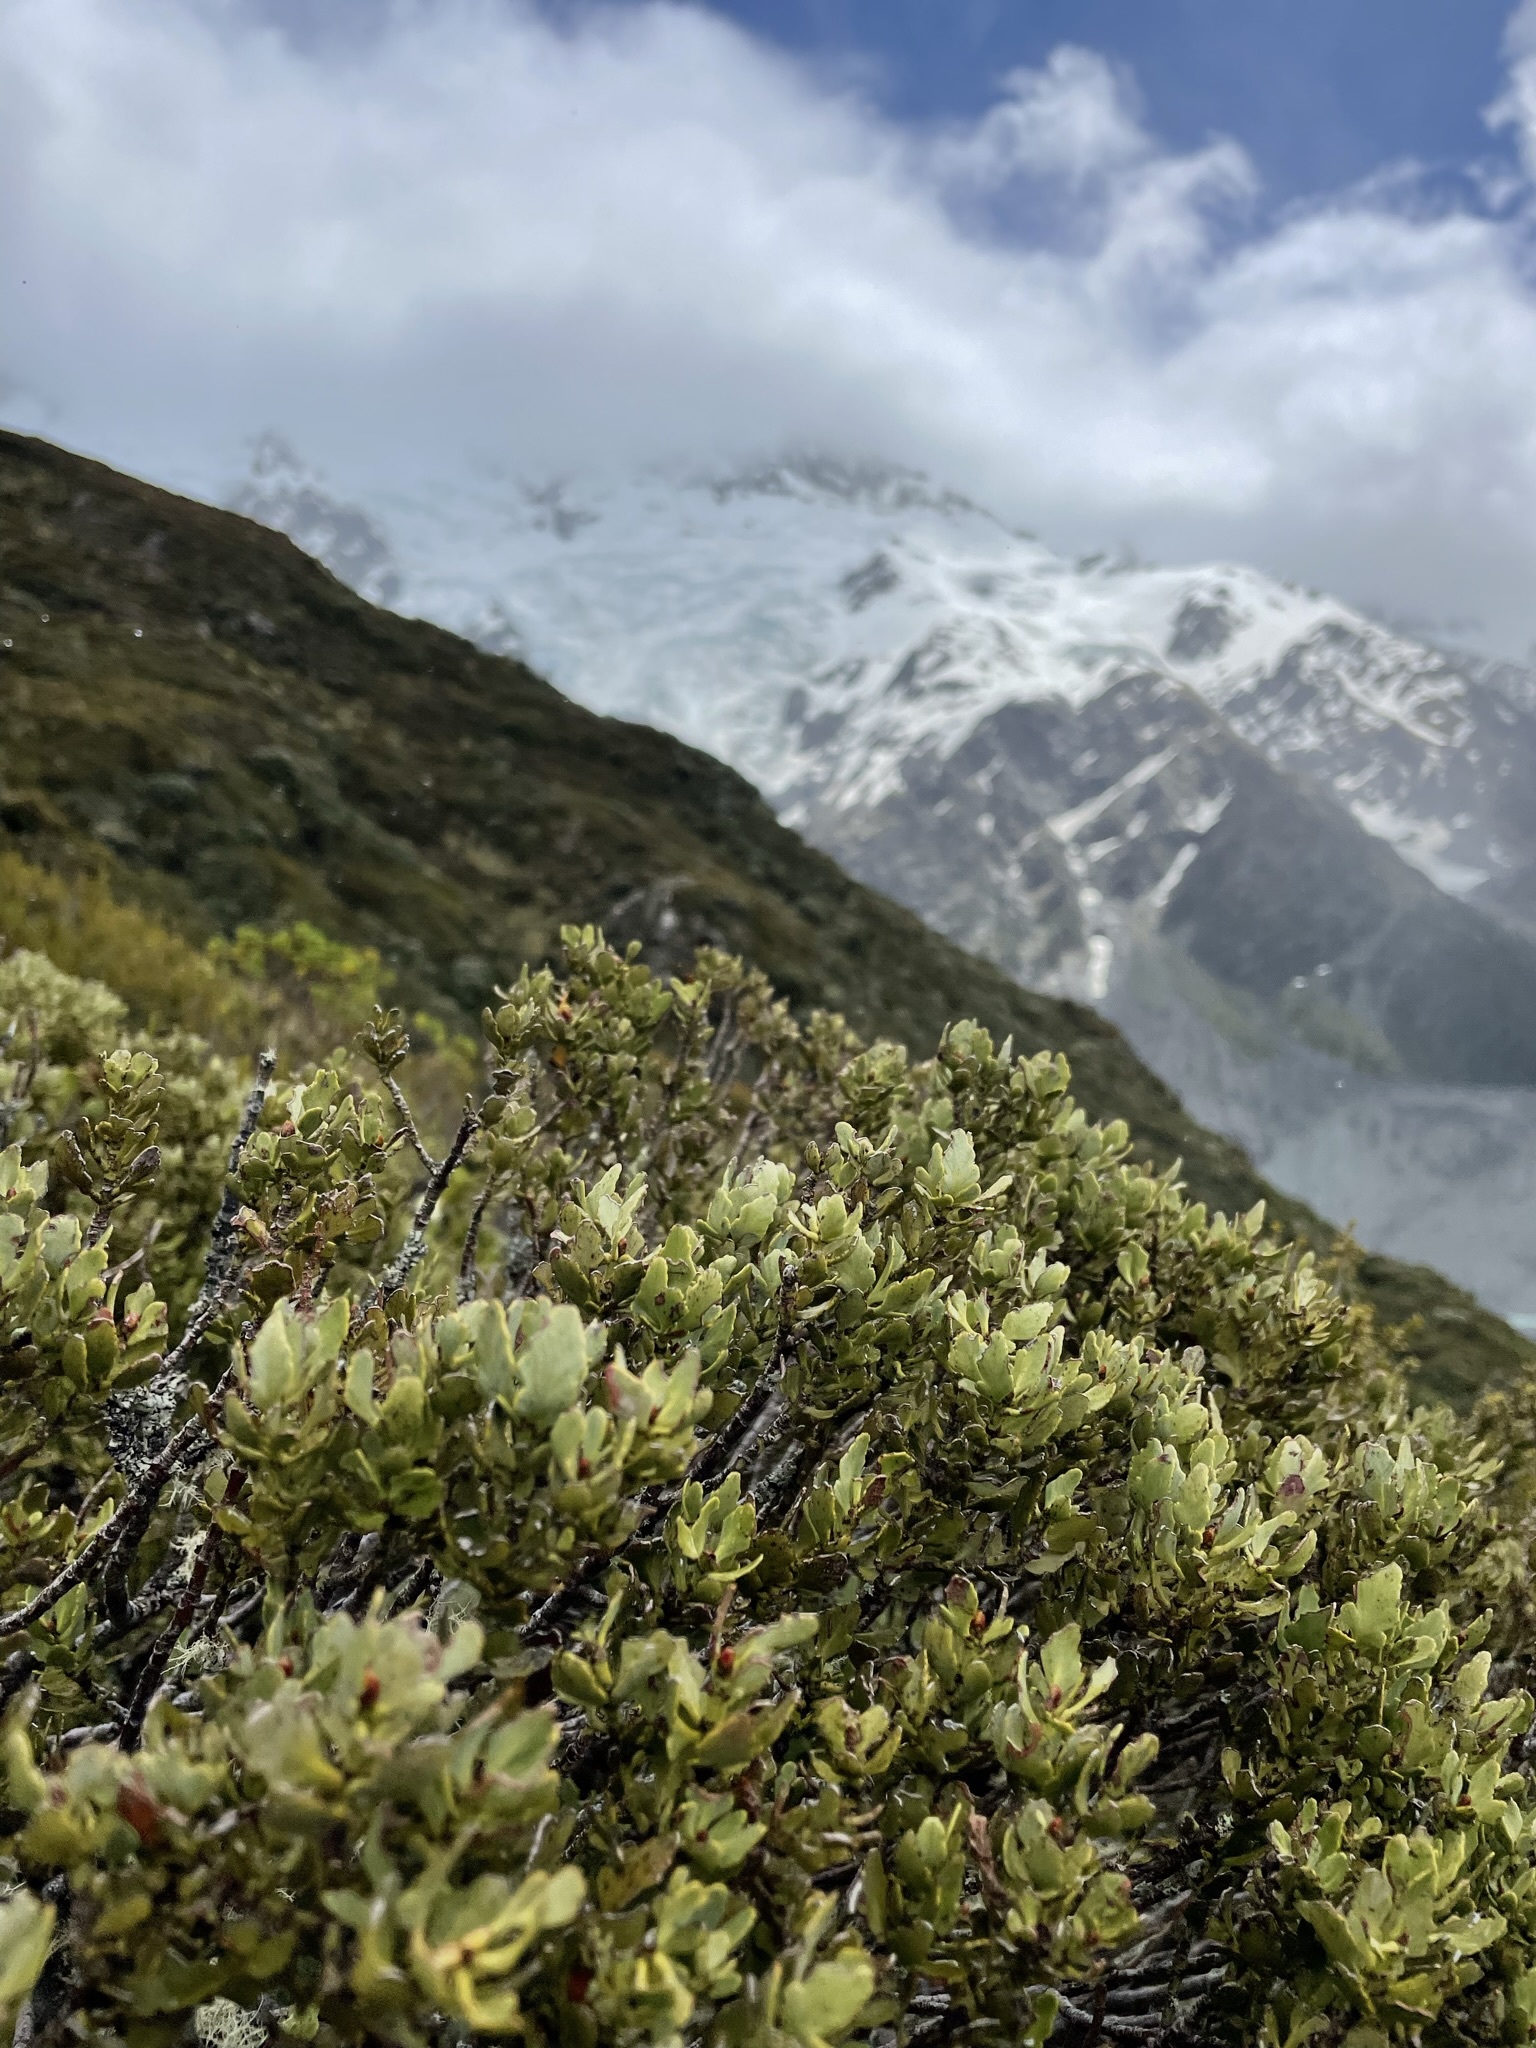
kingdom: Plantae
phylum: Tracheophyta
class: Pinopsida
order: Pinales
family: Phyllocladaceae
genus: Phyllocladus
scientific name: Phyllocladus trichomanoides
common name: Celery pine
